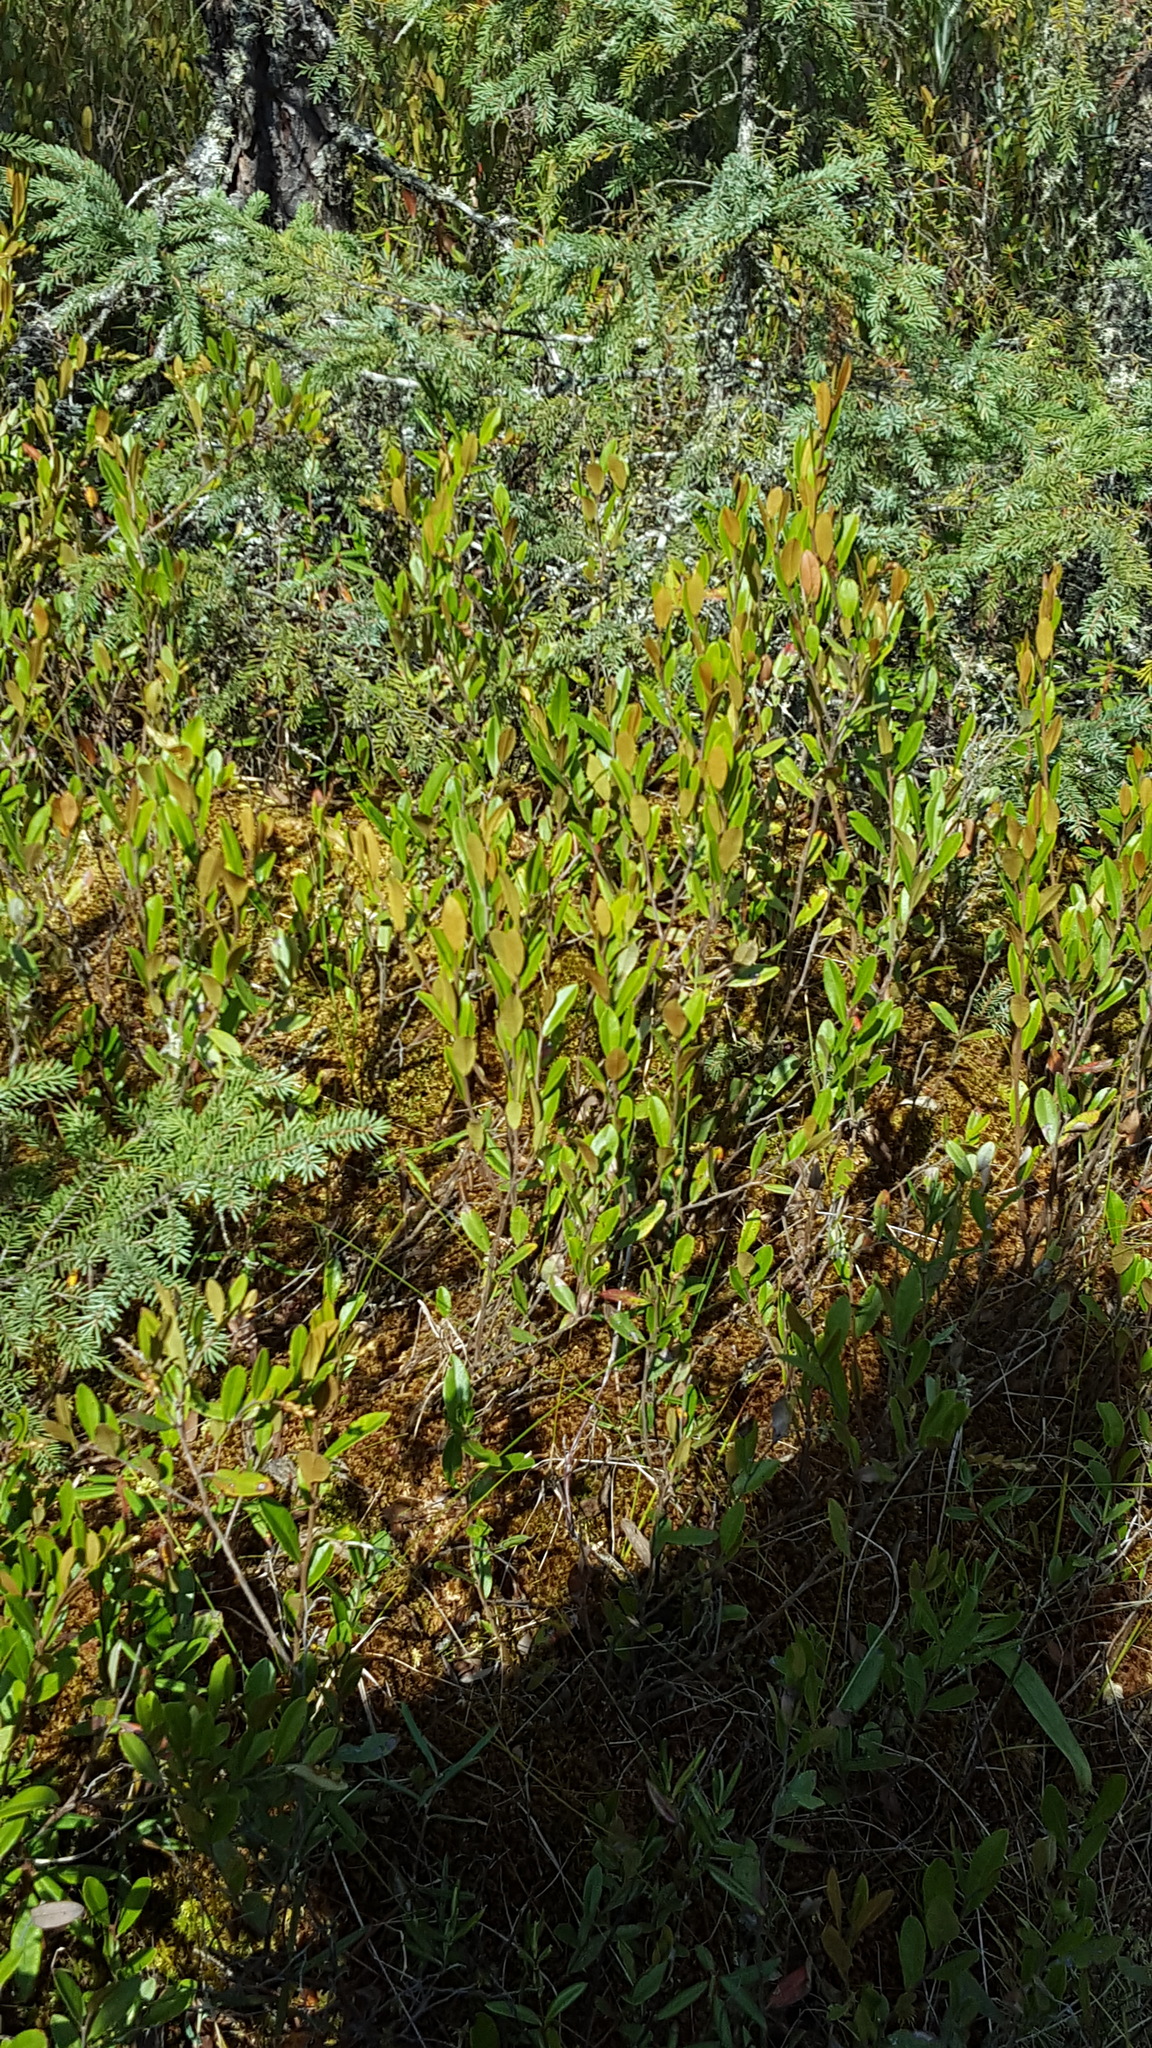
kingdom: Plantae
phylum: Tracheophyta
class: Magnoliopsida
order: Ericales
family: Ericaceae
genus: Chamaedaphne
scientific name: Chamaedaphne calyculata
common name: Leatherleaf
